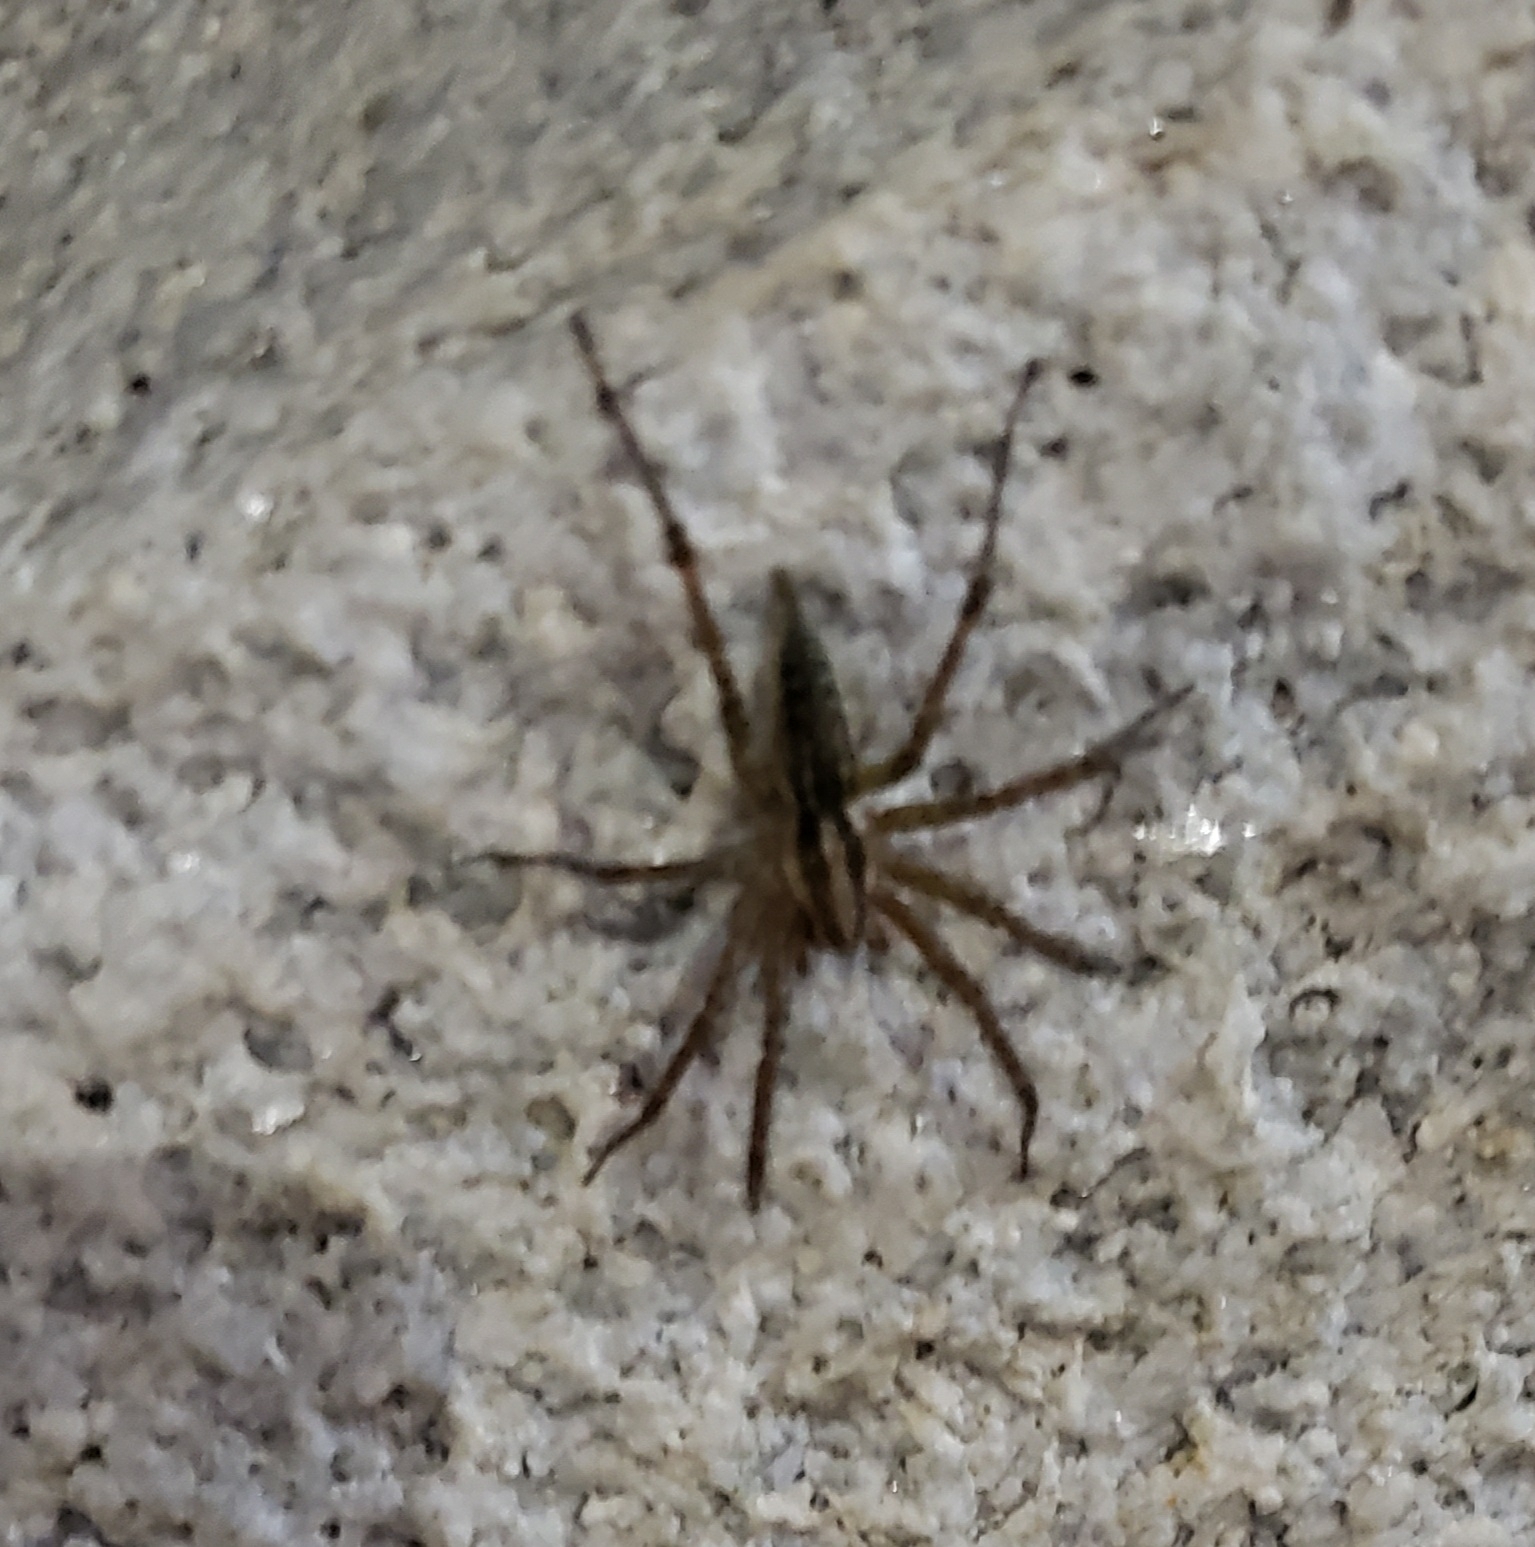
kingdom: Animalia
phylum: Arthropoda
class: Arachnida
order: Araneae
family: Agelenidae
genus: Agelenopsis
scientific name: Agelenopsis
